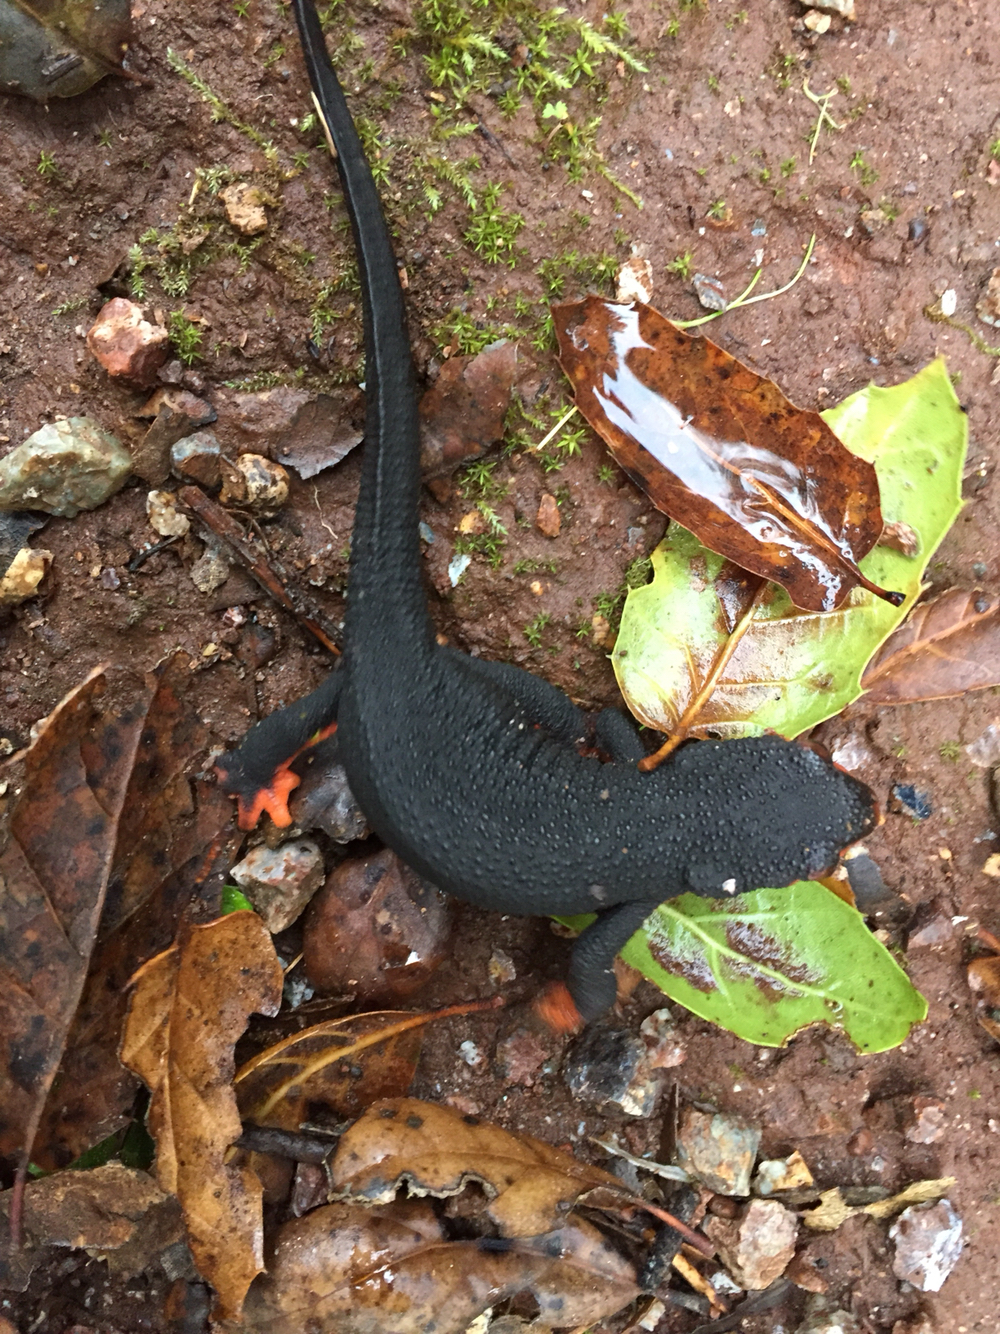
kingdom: Animalia
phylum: Chordata
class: Amphibia
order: Caudata
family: Salamandridae
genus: Taricha
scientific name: Taricha rivularis
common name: Red-bellied newt
